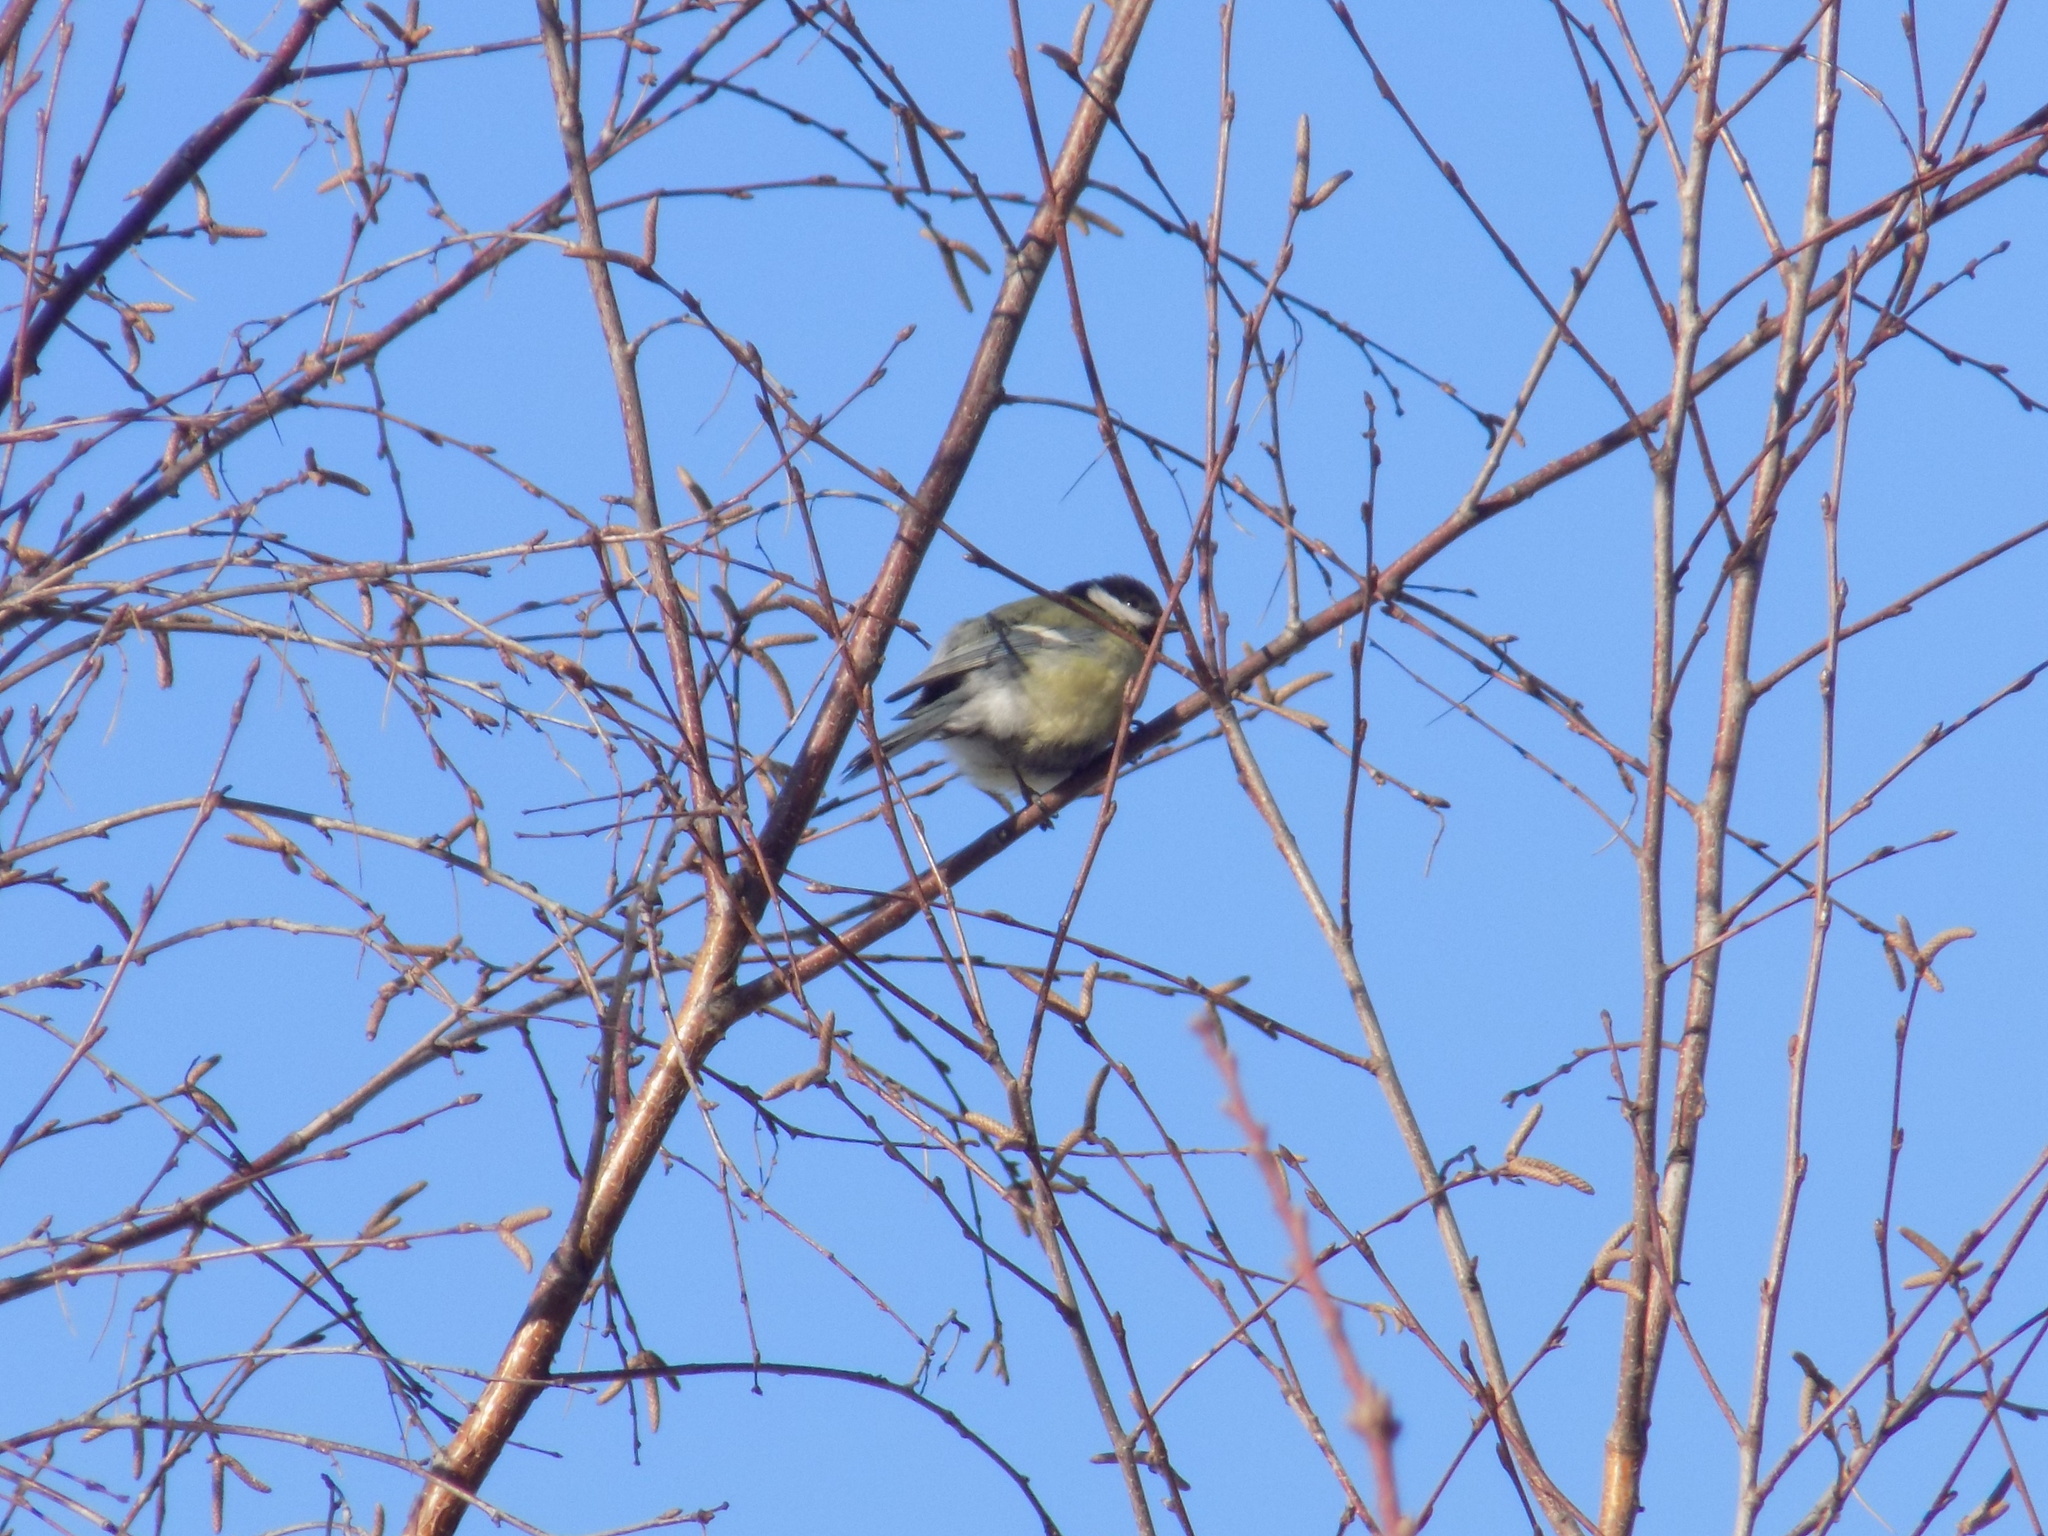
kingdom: Animalia
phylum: Chordata
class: Aves
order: Passeriformes
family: Paridae
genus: Parus
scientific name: Parus major
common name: Great tit
